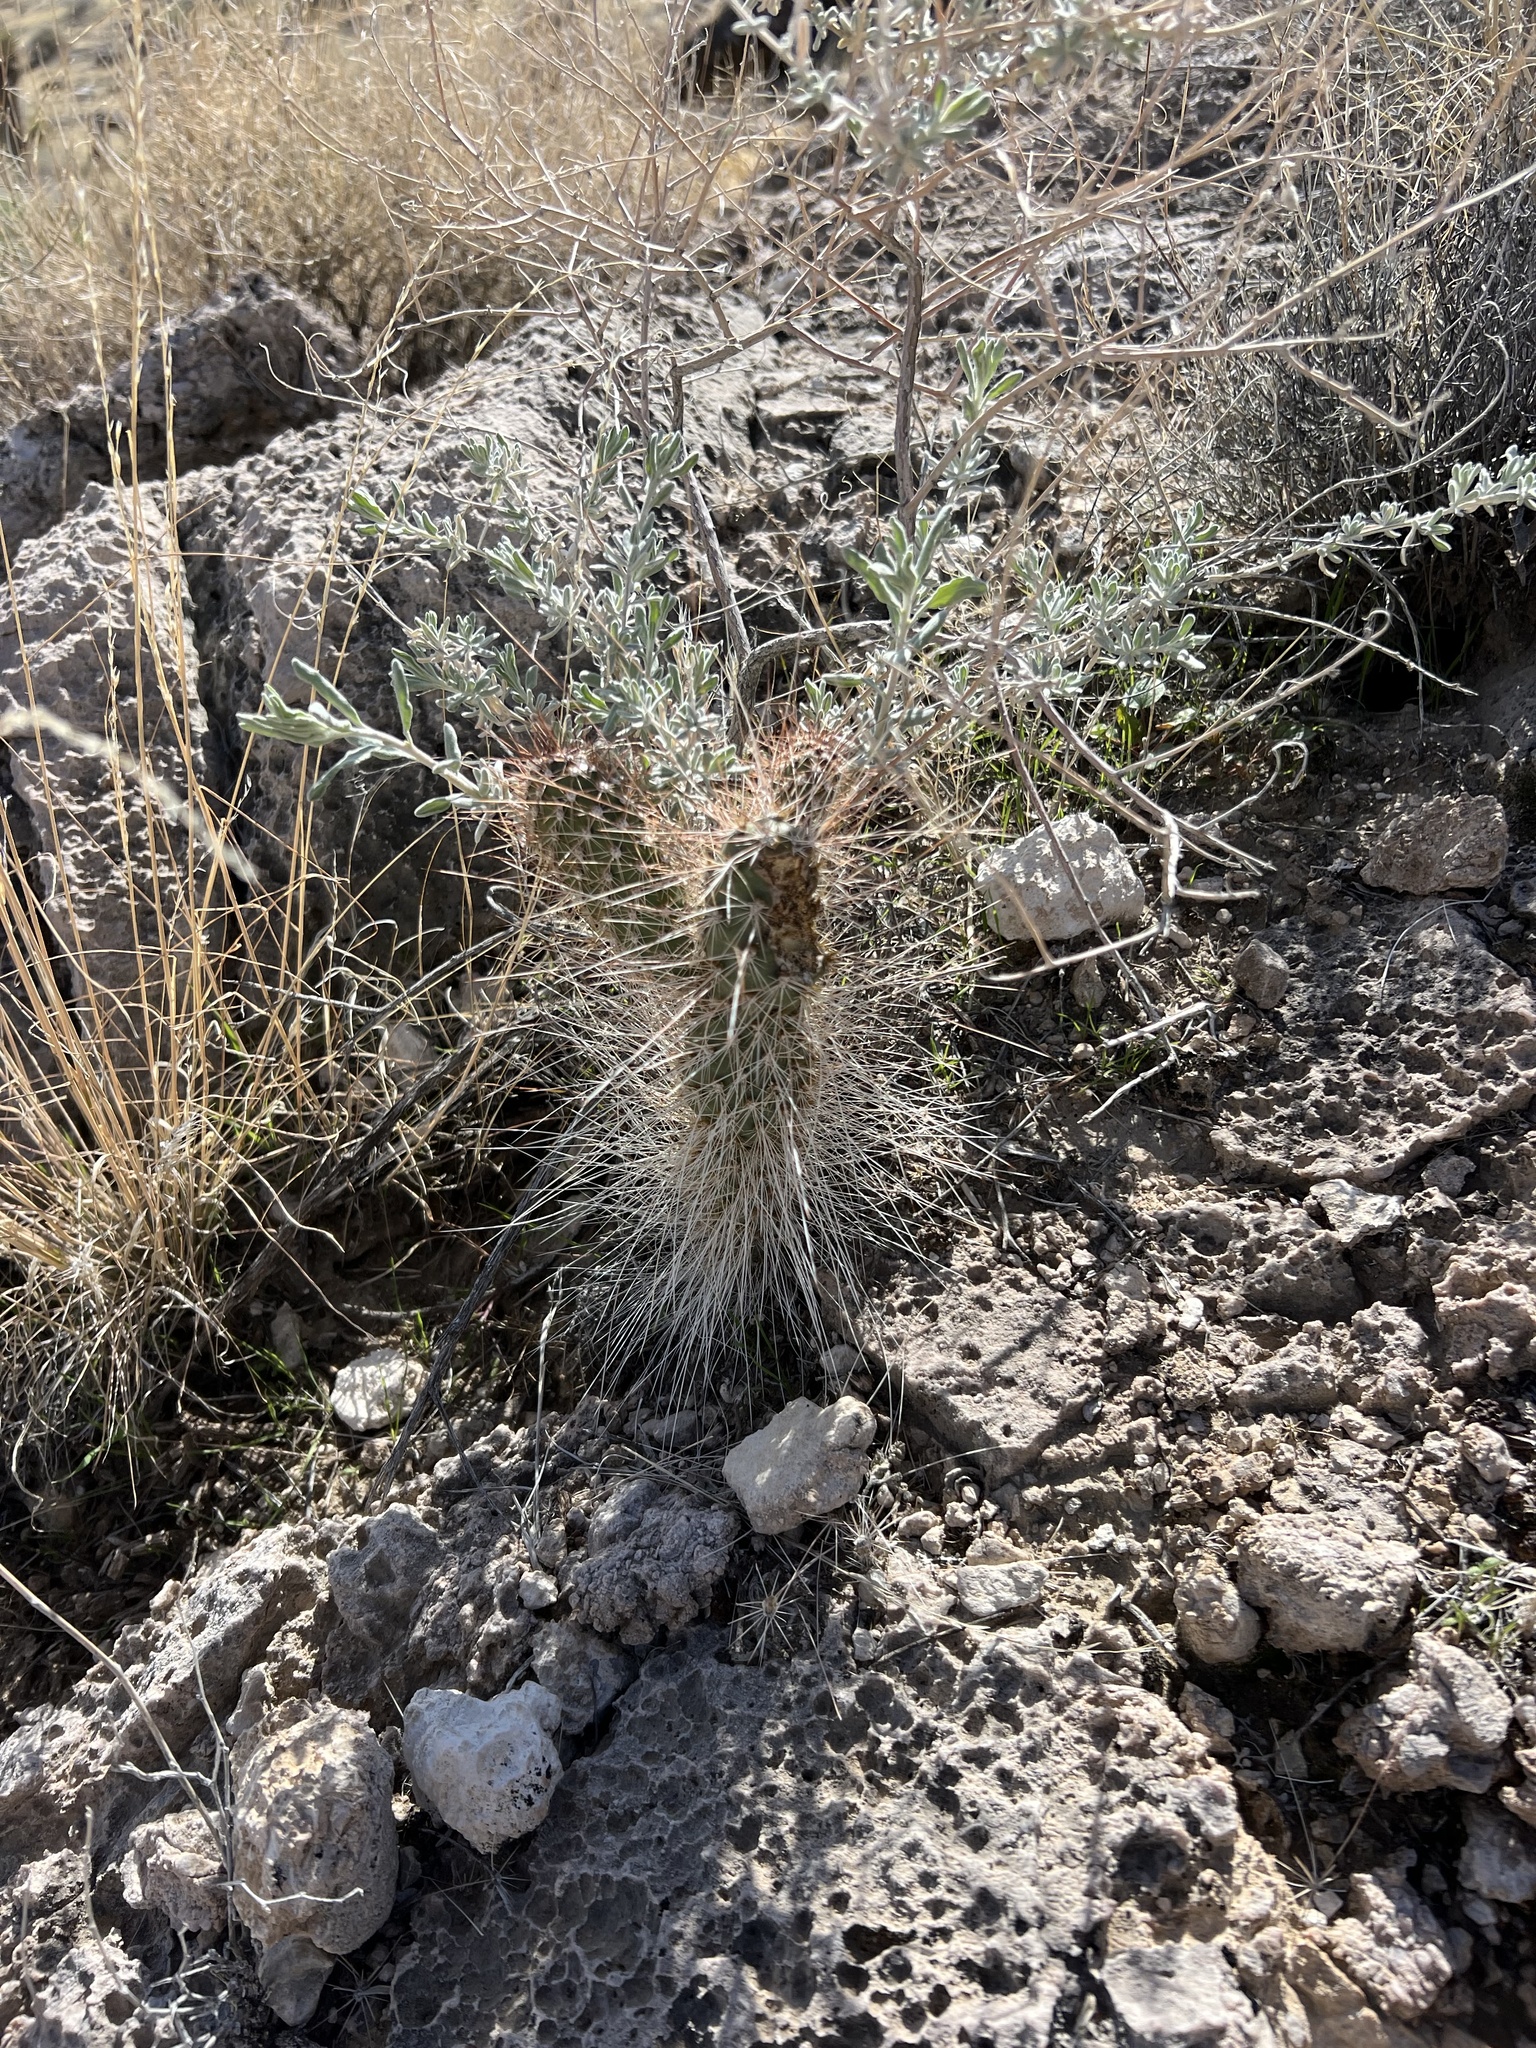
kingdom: Plantae
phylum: Tracheophyta
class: Magnoliopsida
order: Caryophyllales
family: Cactaceae
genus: Opuntia
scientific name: Opuntia polyacantha
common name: Plains prickly-pear
